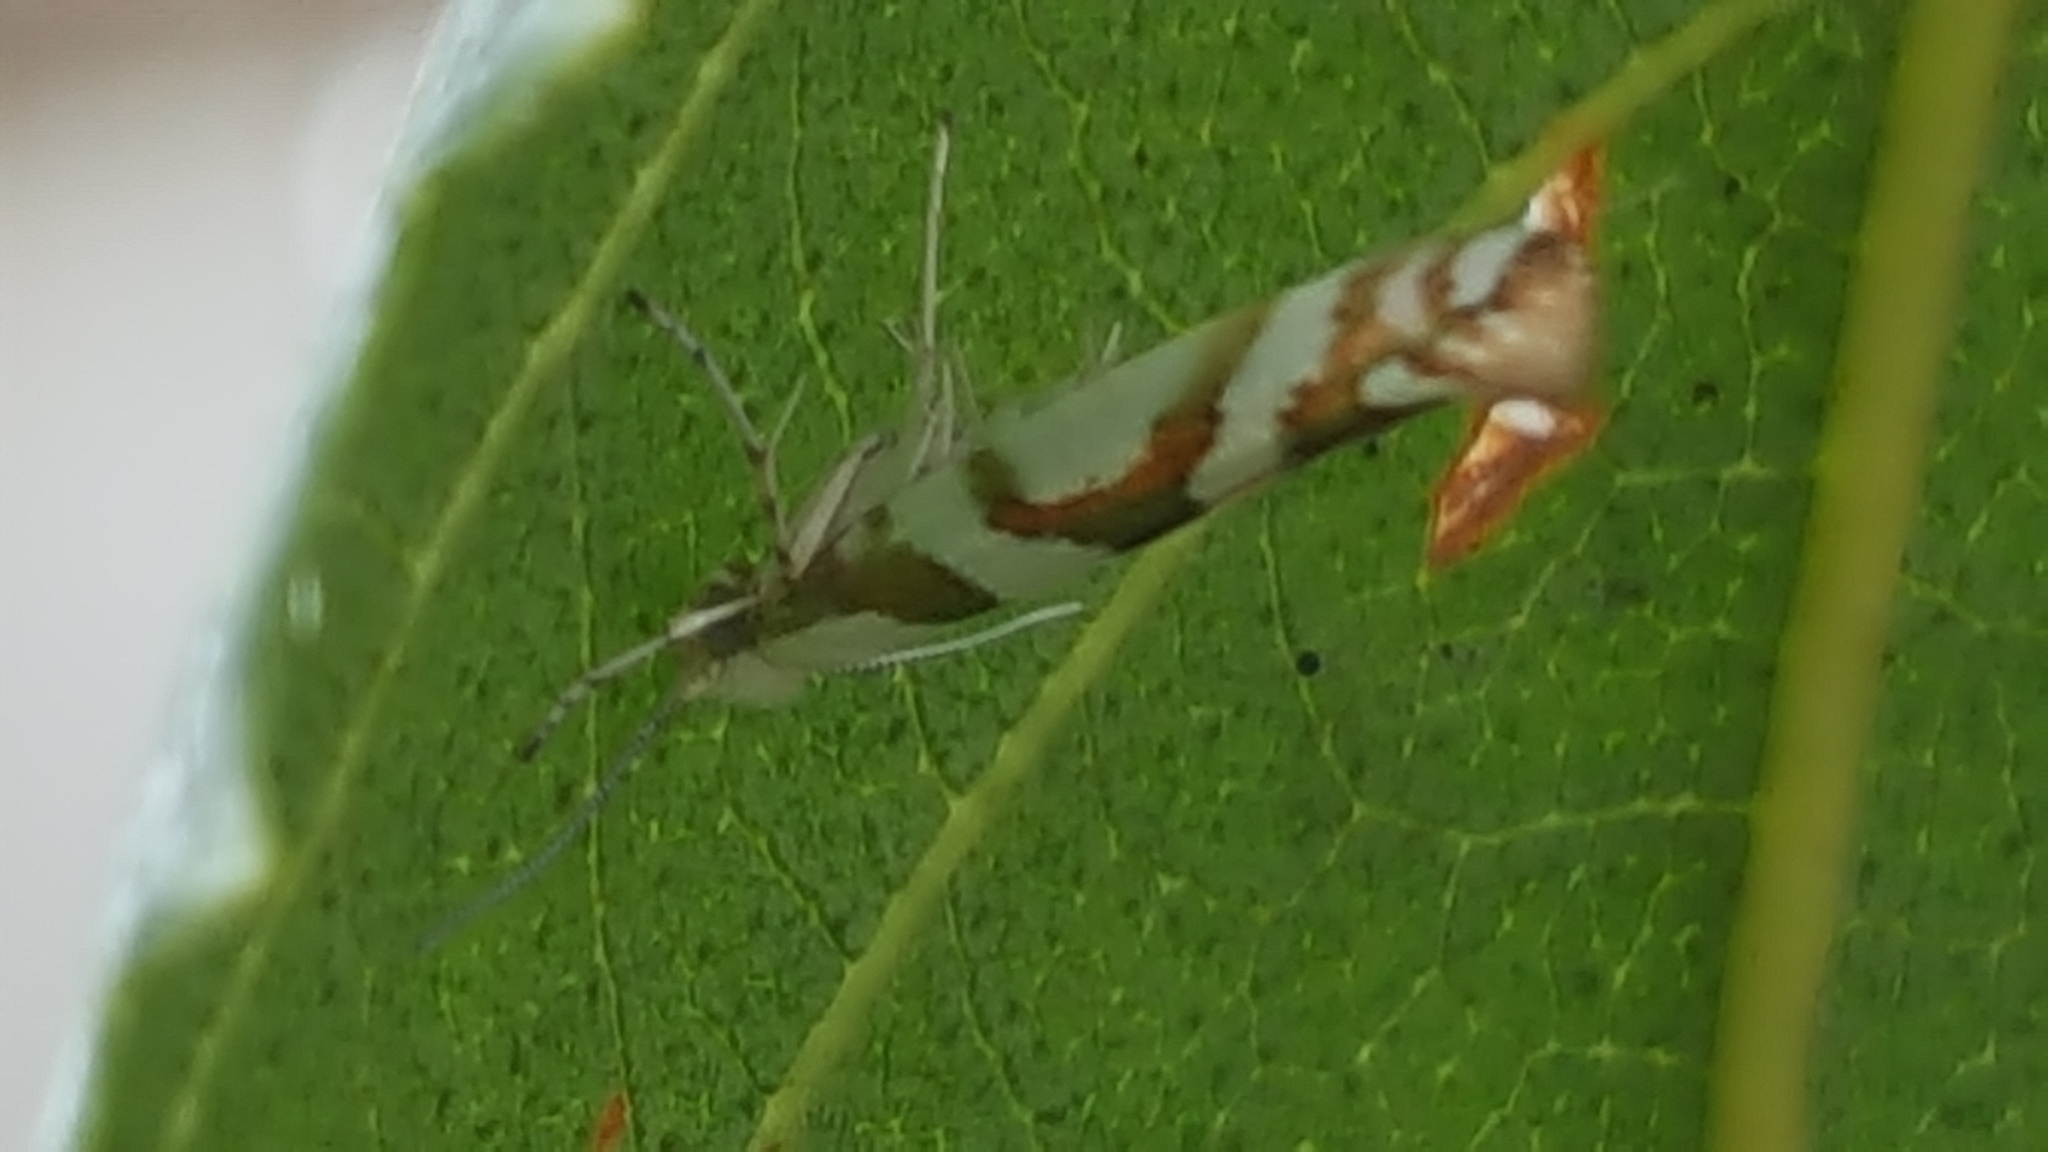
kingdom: Animalia
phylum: Arthropoda
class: Insecta
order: Lepidoptera
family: Argyresthiidae
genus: Argyresthia
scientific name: Argyresthia calliphanes
